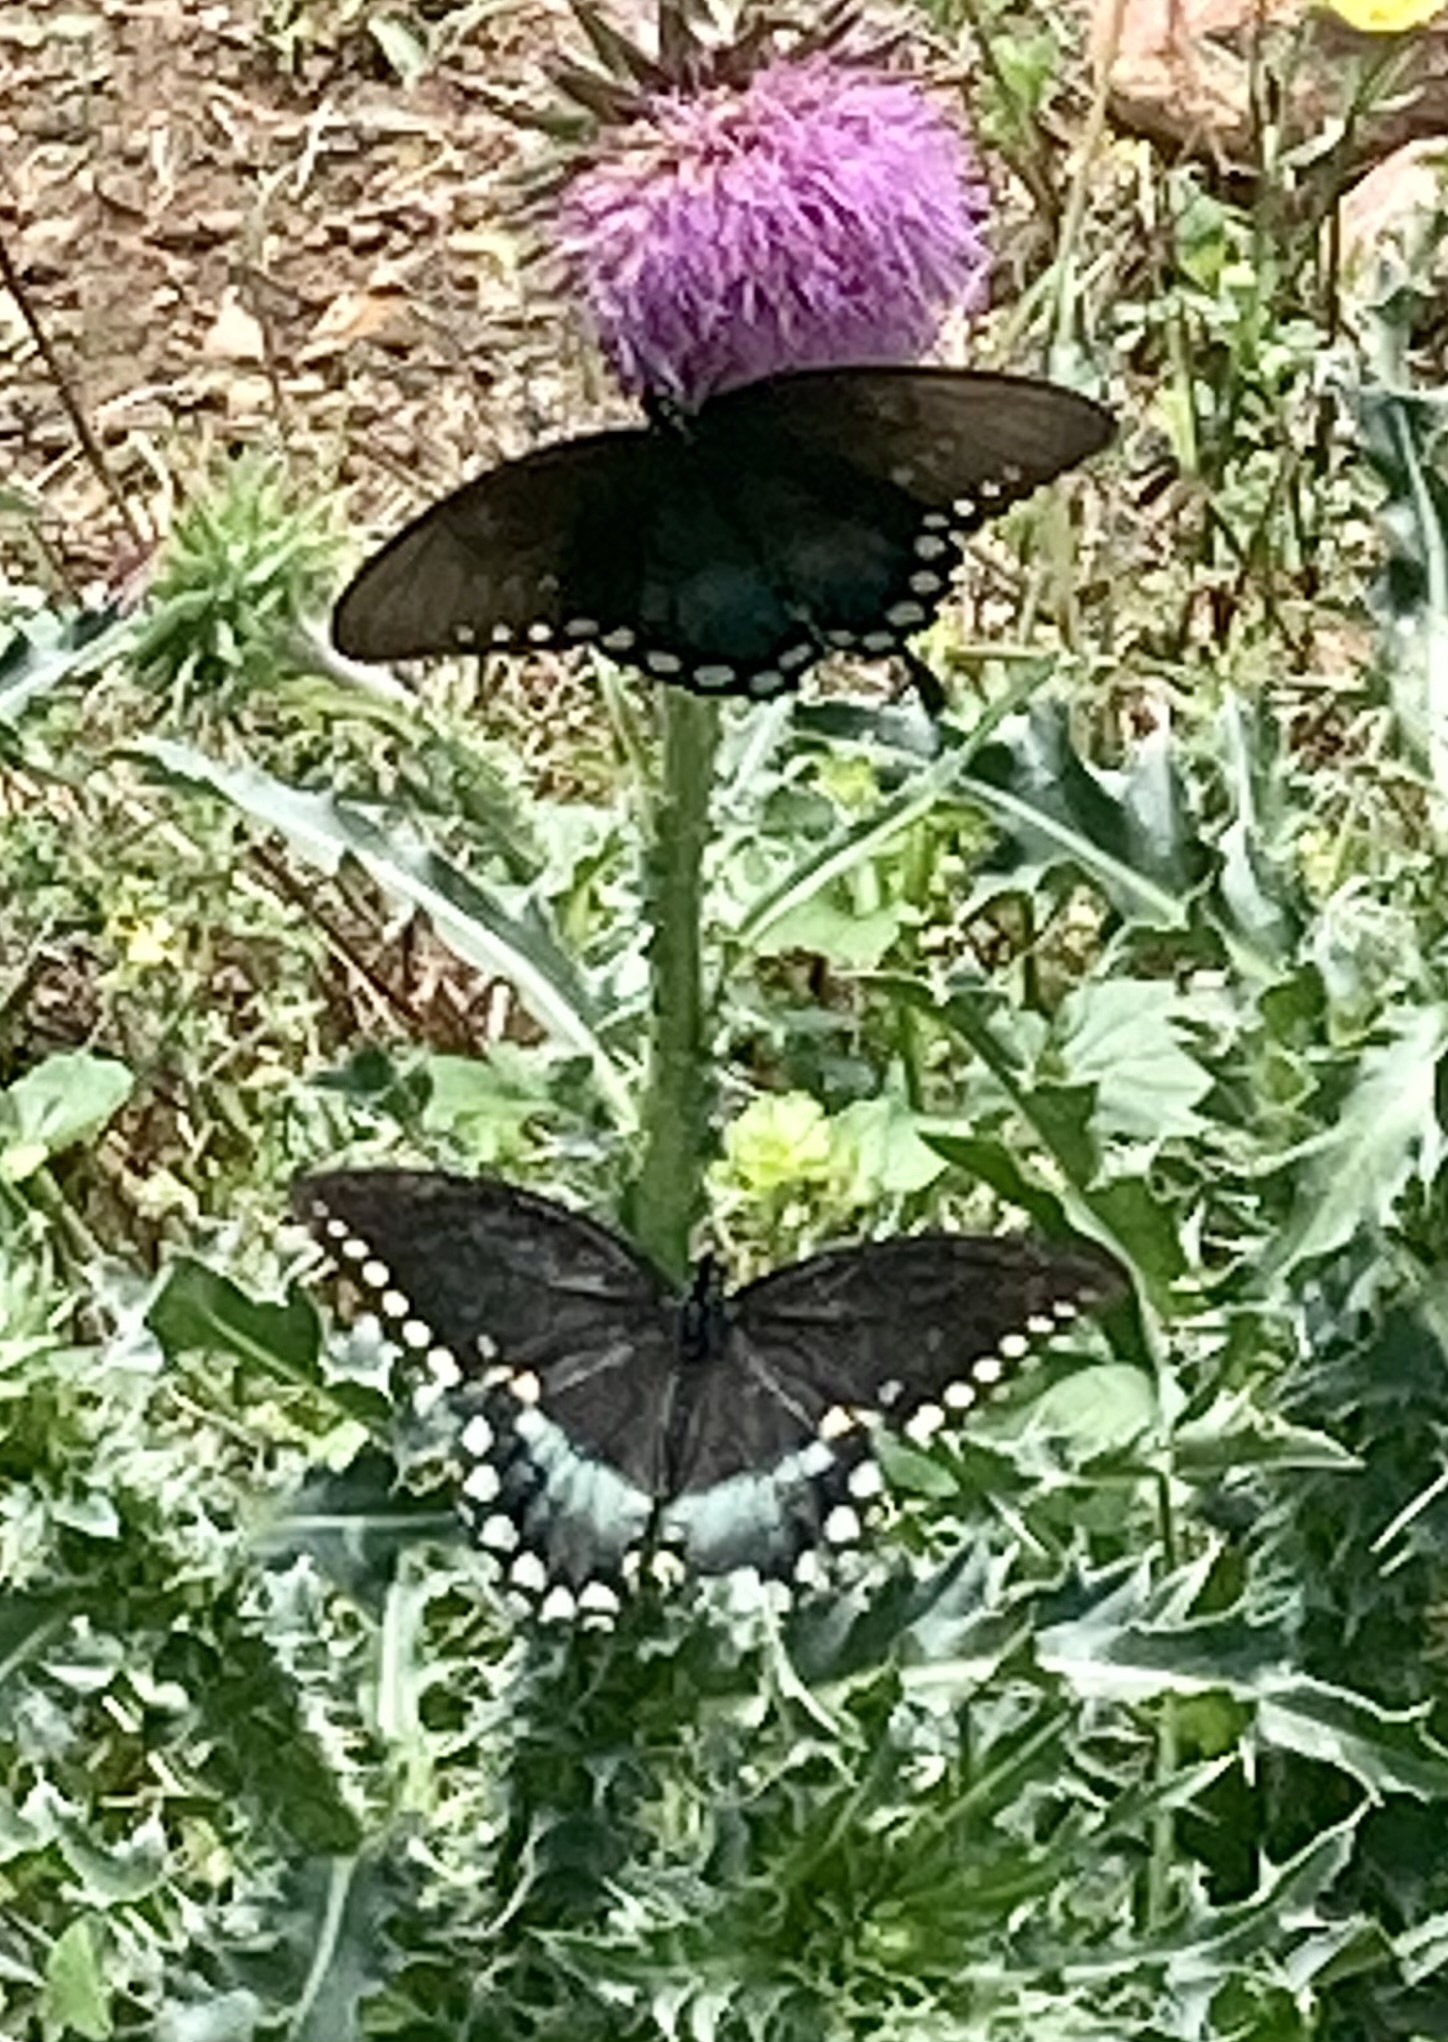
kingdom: Animalia
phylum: Arthropoda
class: Insecta
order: Lepidoptera
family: Papilionidae
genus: Papilio
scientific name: Papilio troilus
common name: Spicebush swallowtail
